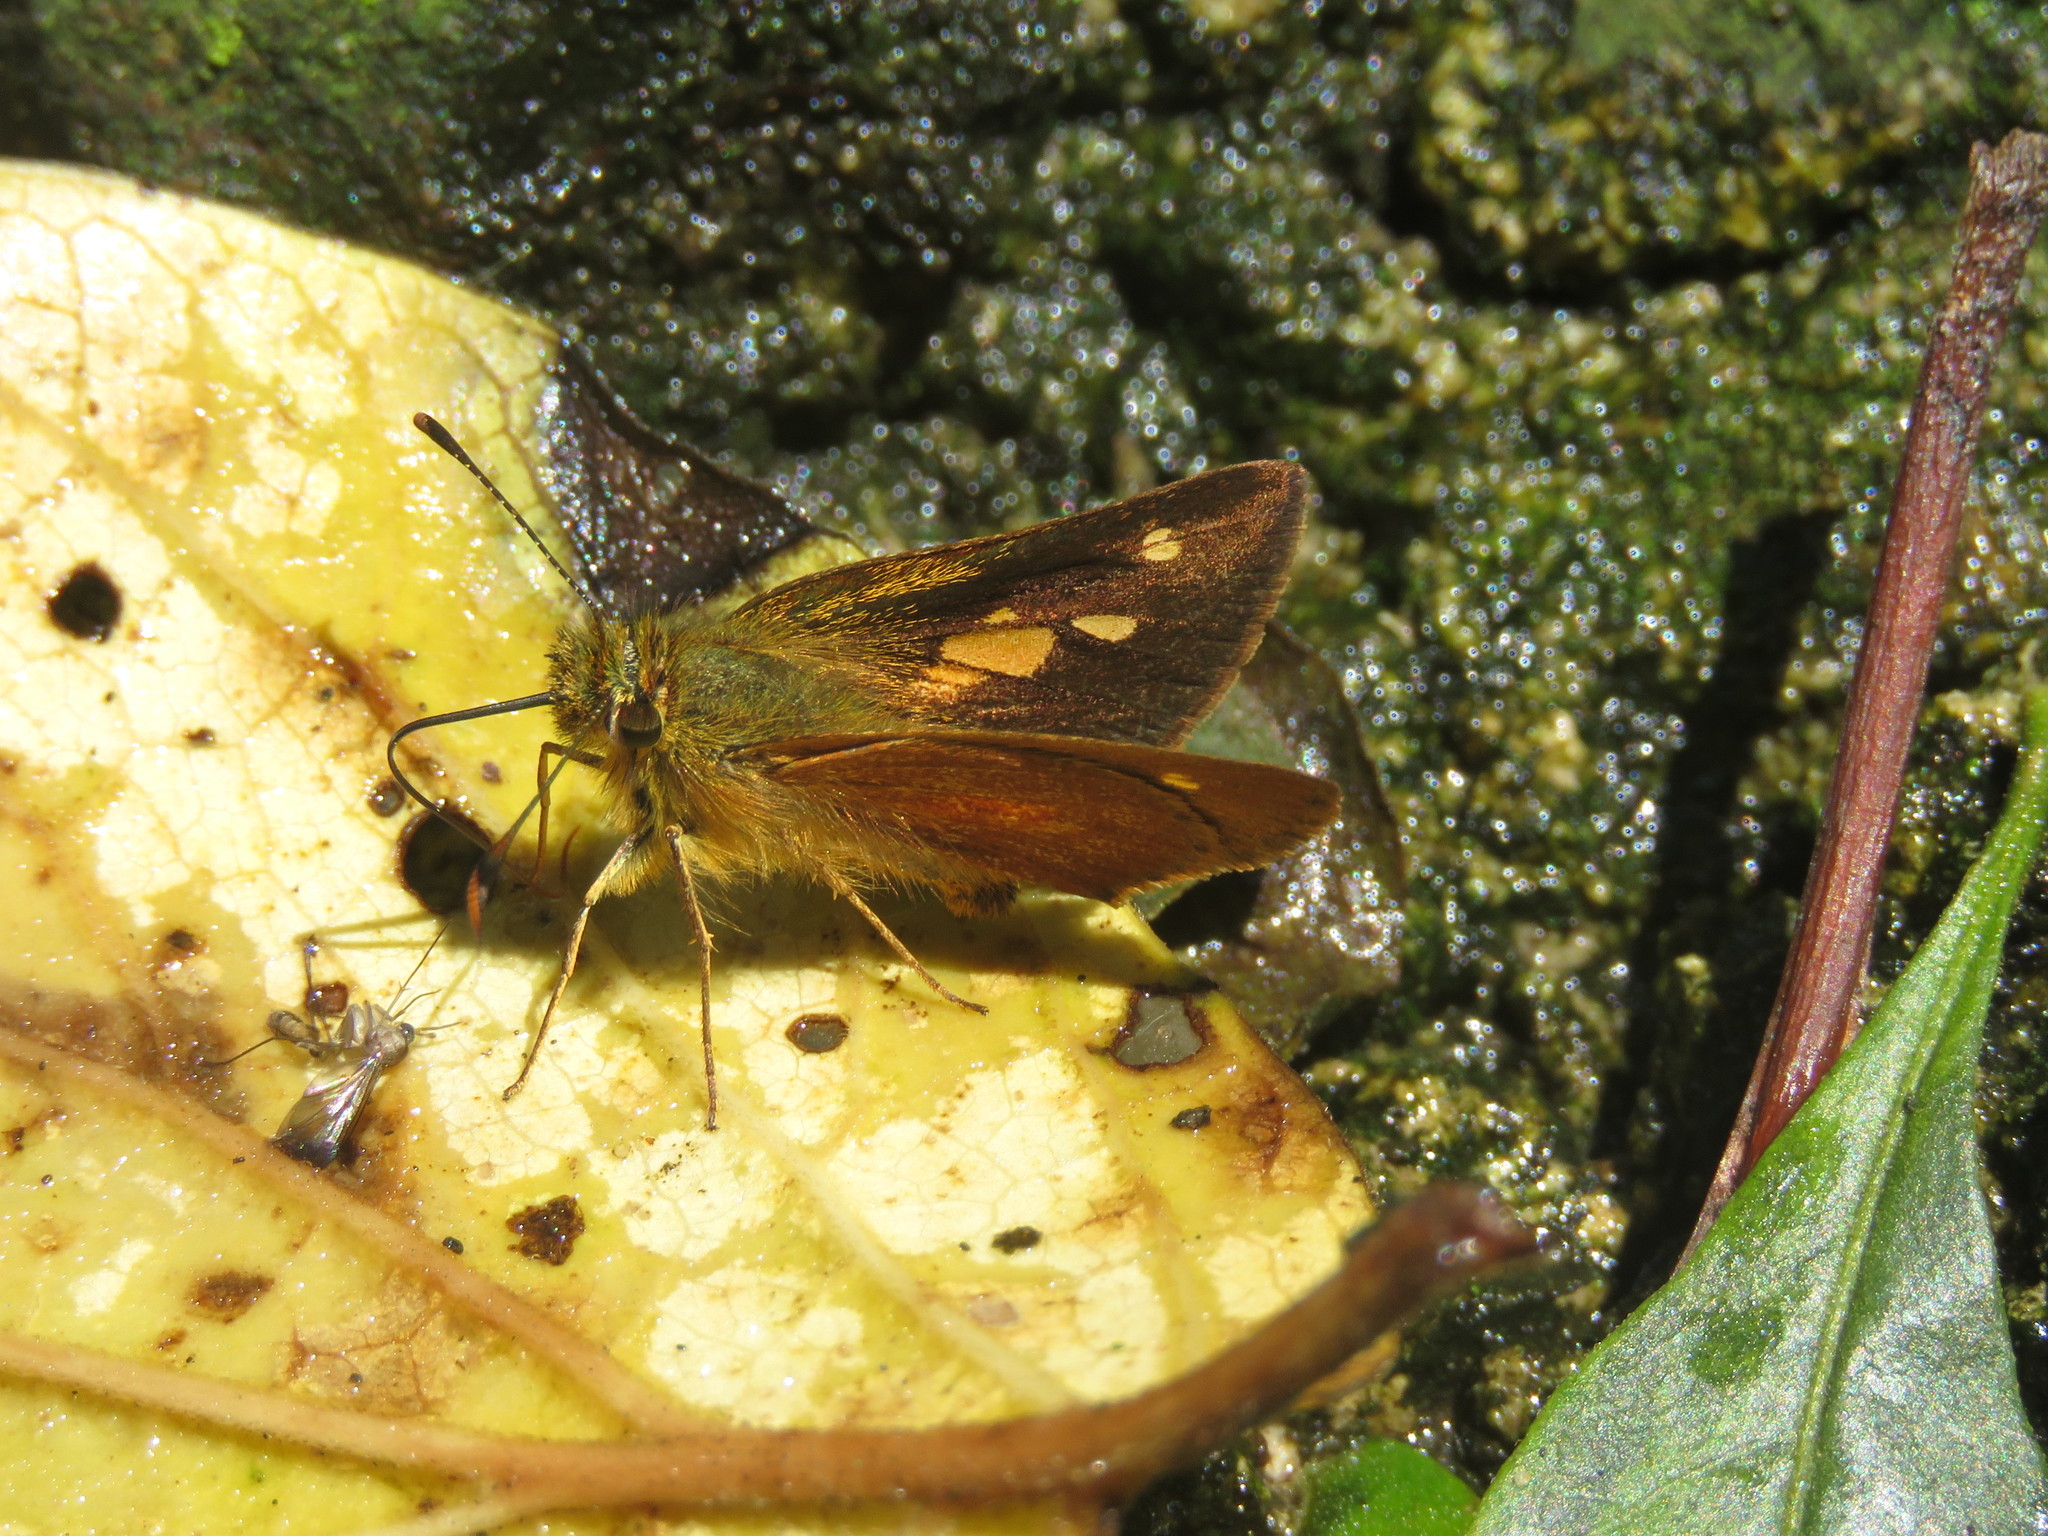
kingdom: Animalia
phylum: Arthropoda
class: Insecta
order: Lepidoptera
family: Hesperiidae
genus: Dalla
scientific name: Dalla caenides
